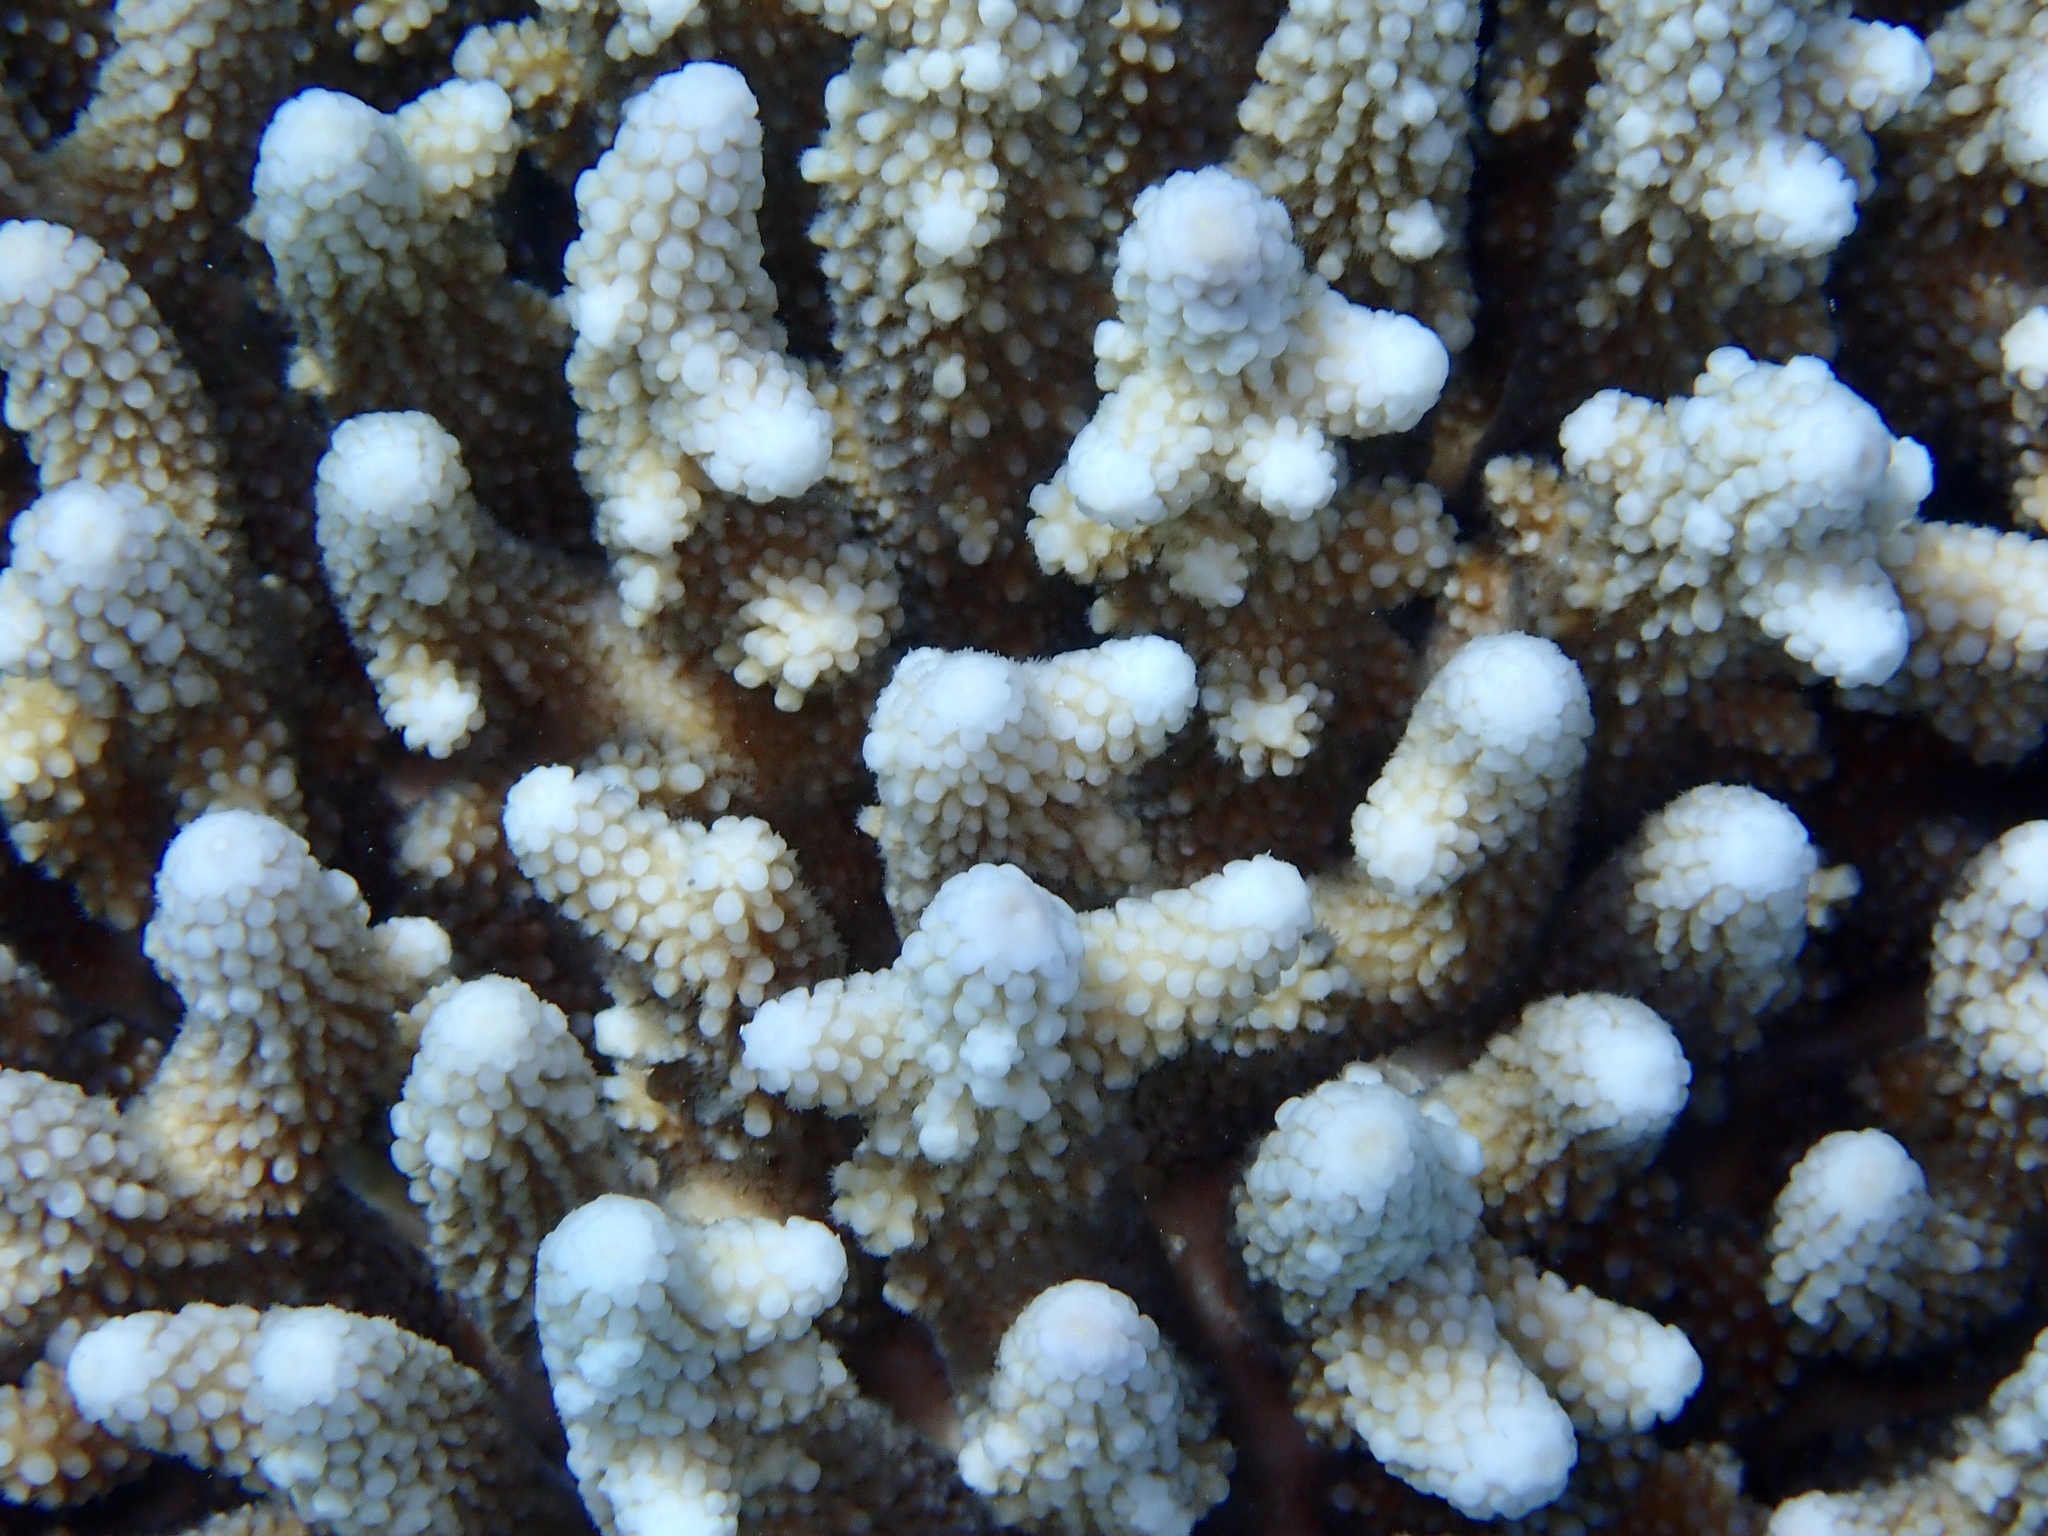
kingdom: Animalia
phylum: Cnidaria
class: Anthozoa
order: Scleractinia
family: Acroporidae
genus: Acropora
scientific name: Acropora gemmifera
